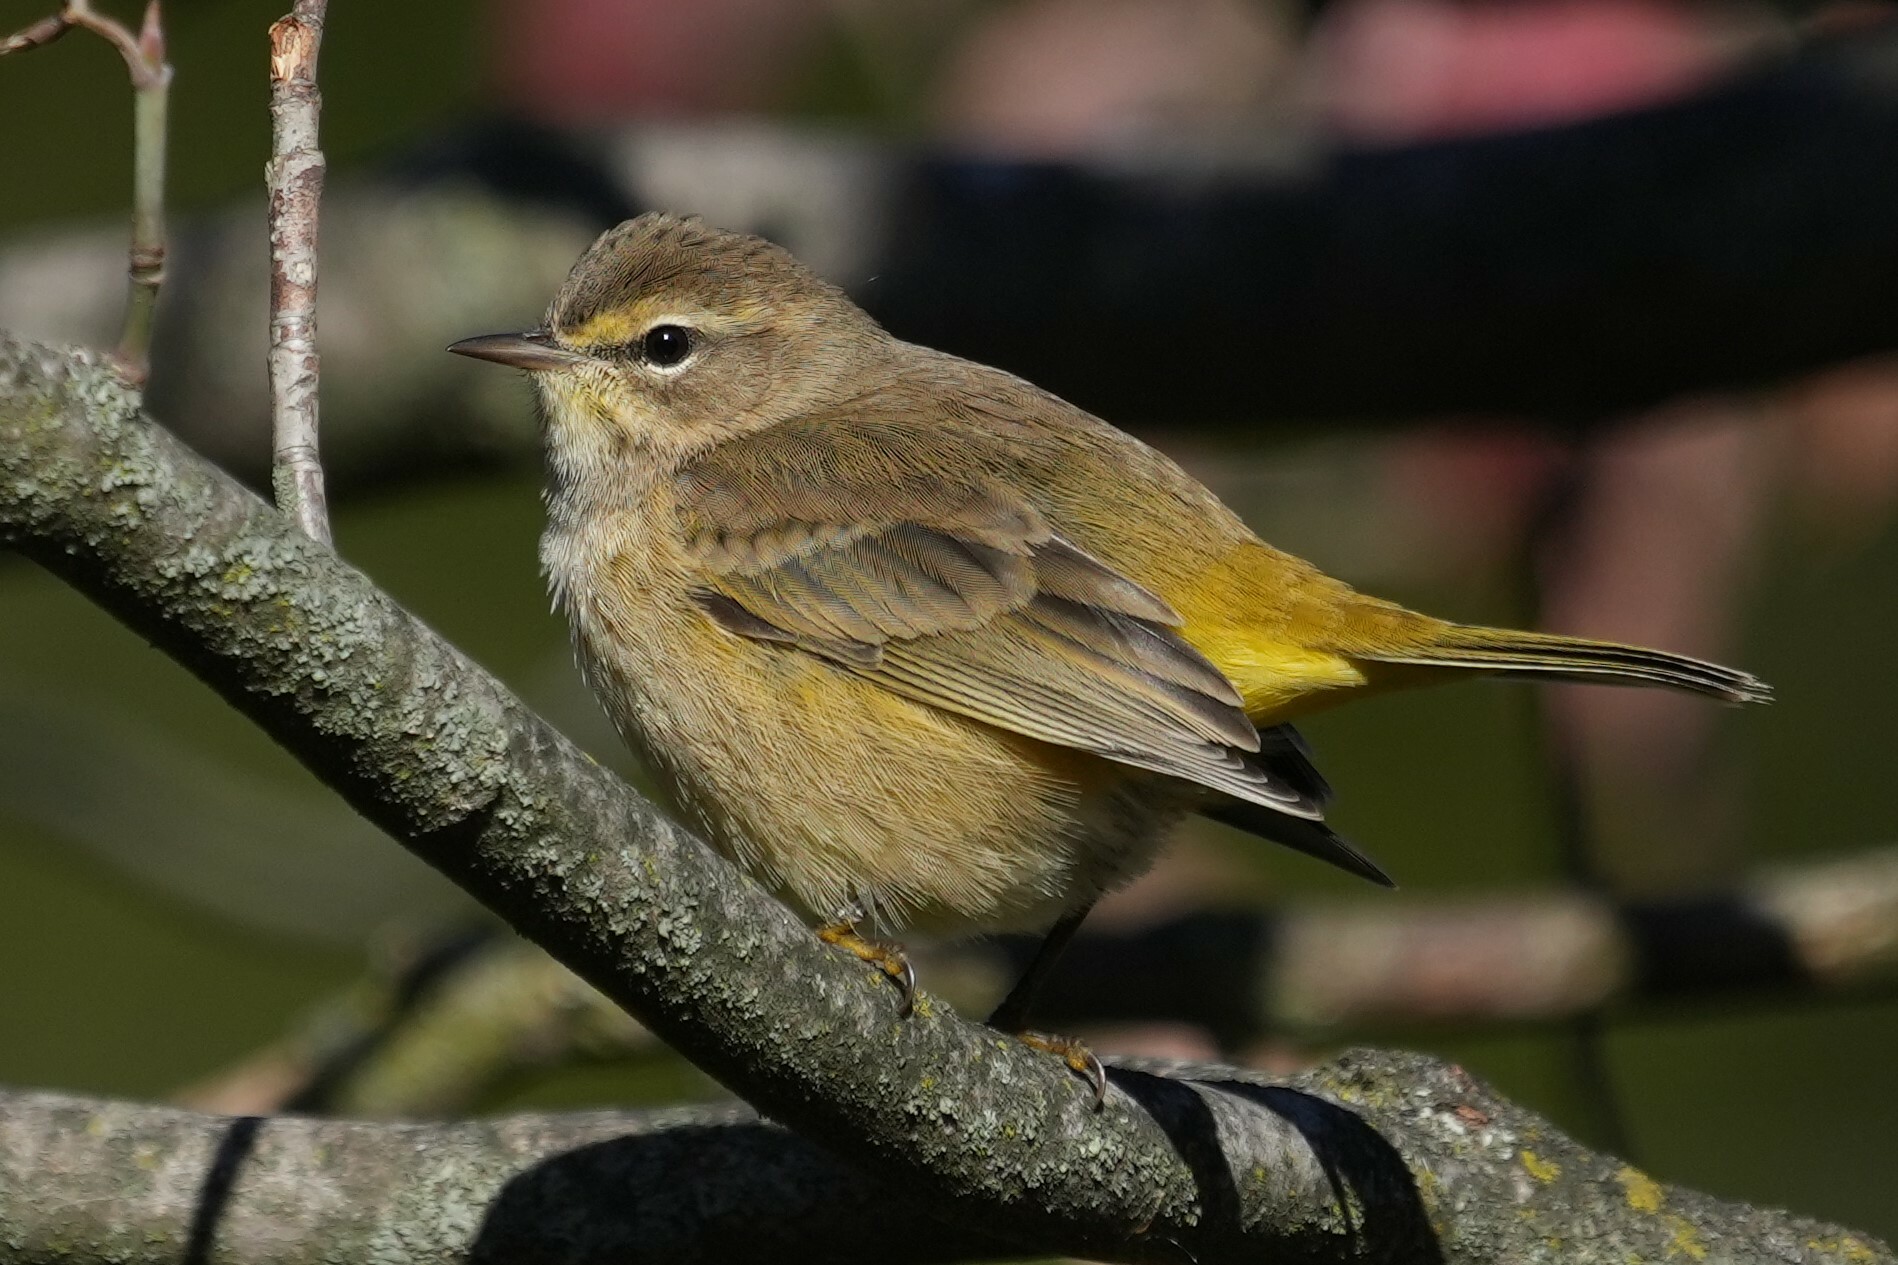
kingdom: Animalia
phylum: Chordata
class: Aves
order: Passeriformes
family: Parulidae
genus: Setophaga
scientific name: Setophaga palmarum
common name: Palm warbler
